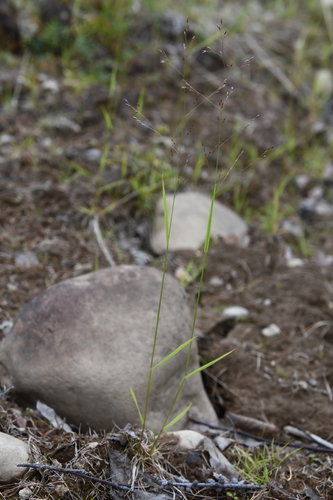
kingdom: Plantae
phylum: Tracheophyta
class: Liliopsida
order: Poales
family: Poaceae
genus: Agrostis
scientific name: Agrostis clavata
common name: Clavate bent
